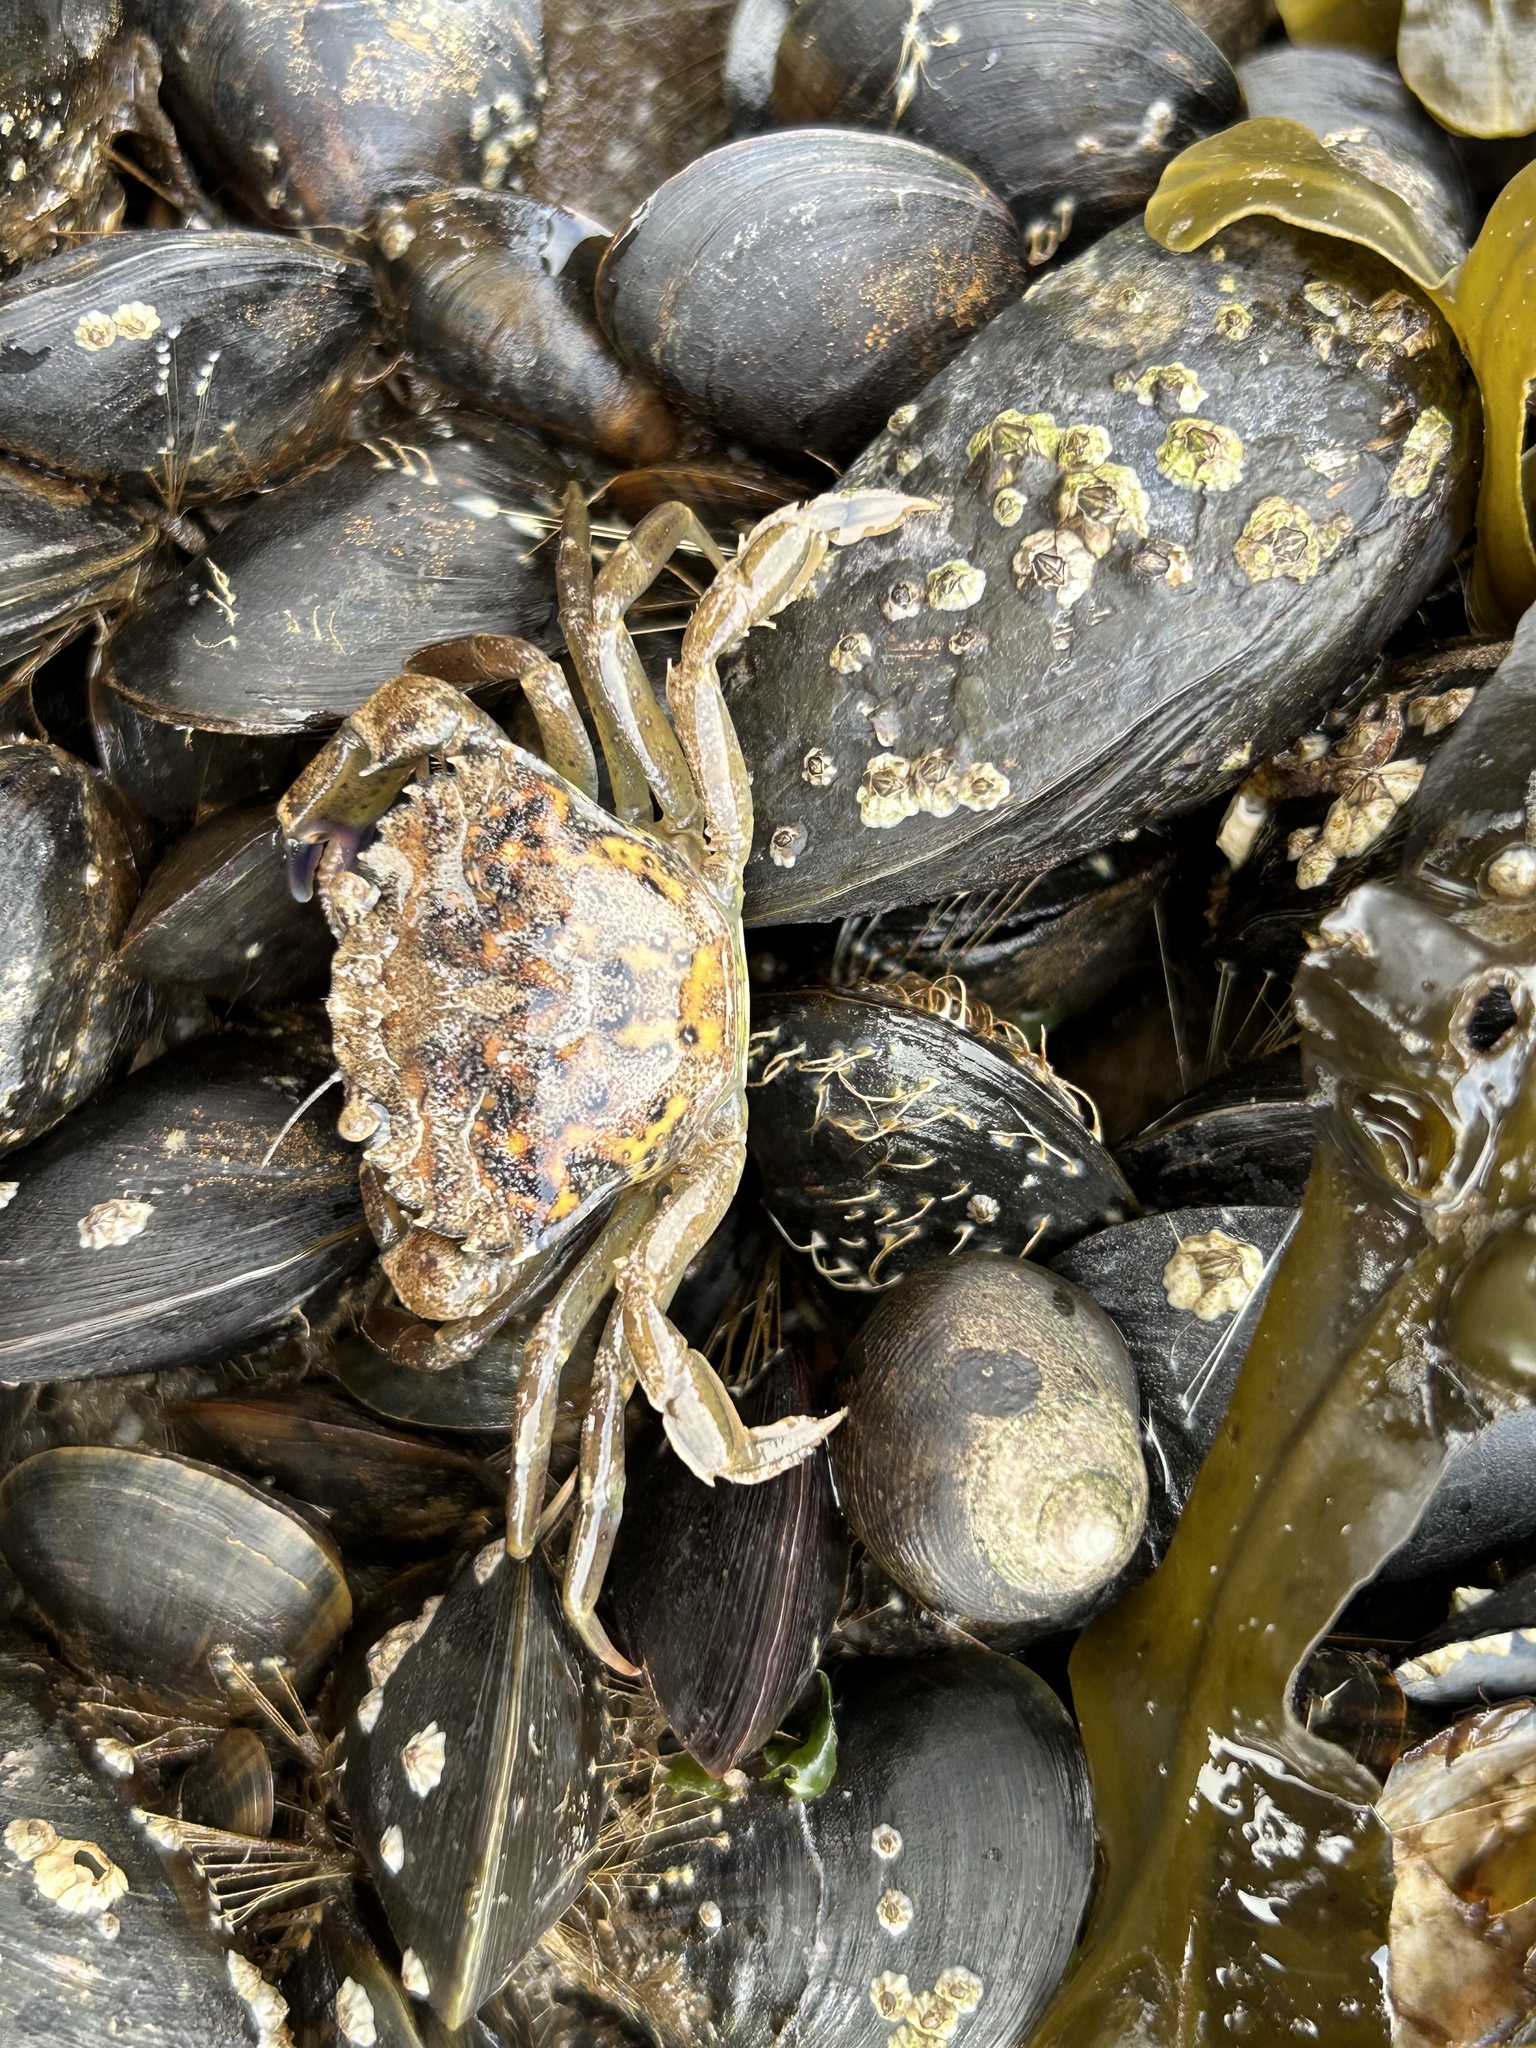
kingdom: Animalia
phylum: Arthropoda
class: Malacostraca
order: Decapoda
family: Carcinidae
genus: Carcinus
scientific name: Carcinus maenas
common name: European green crab
